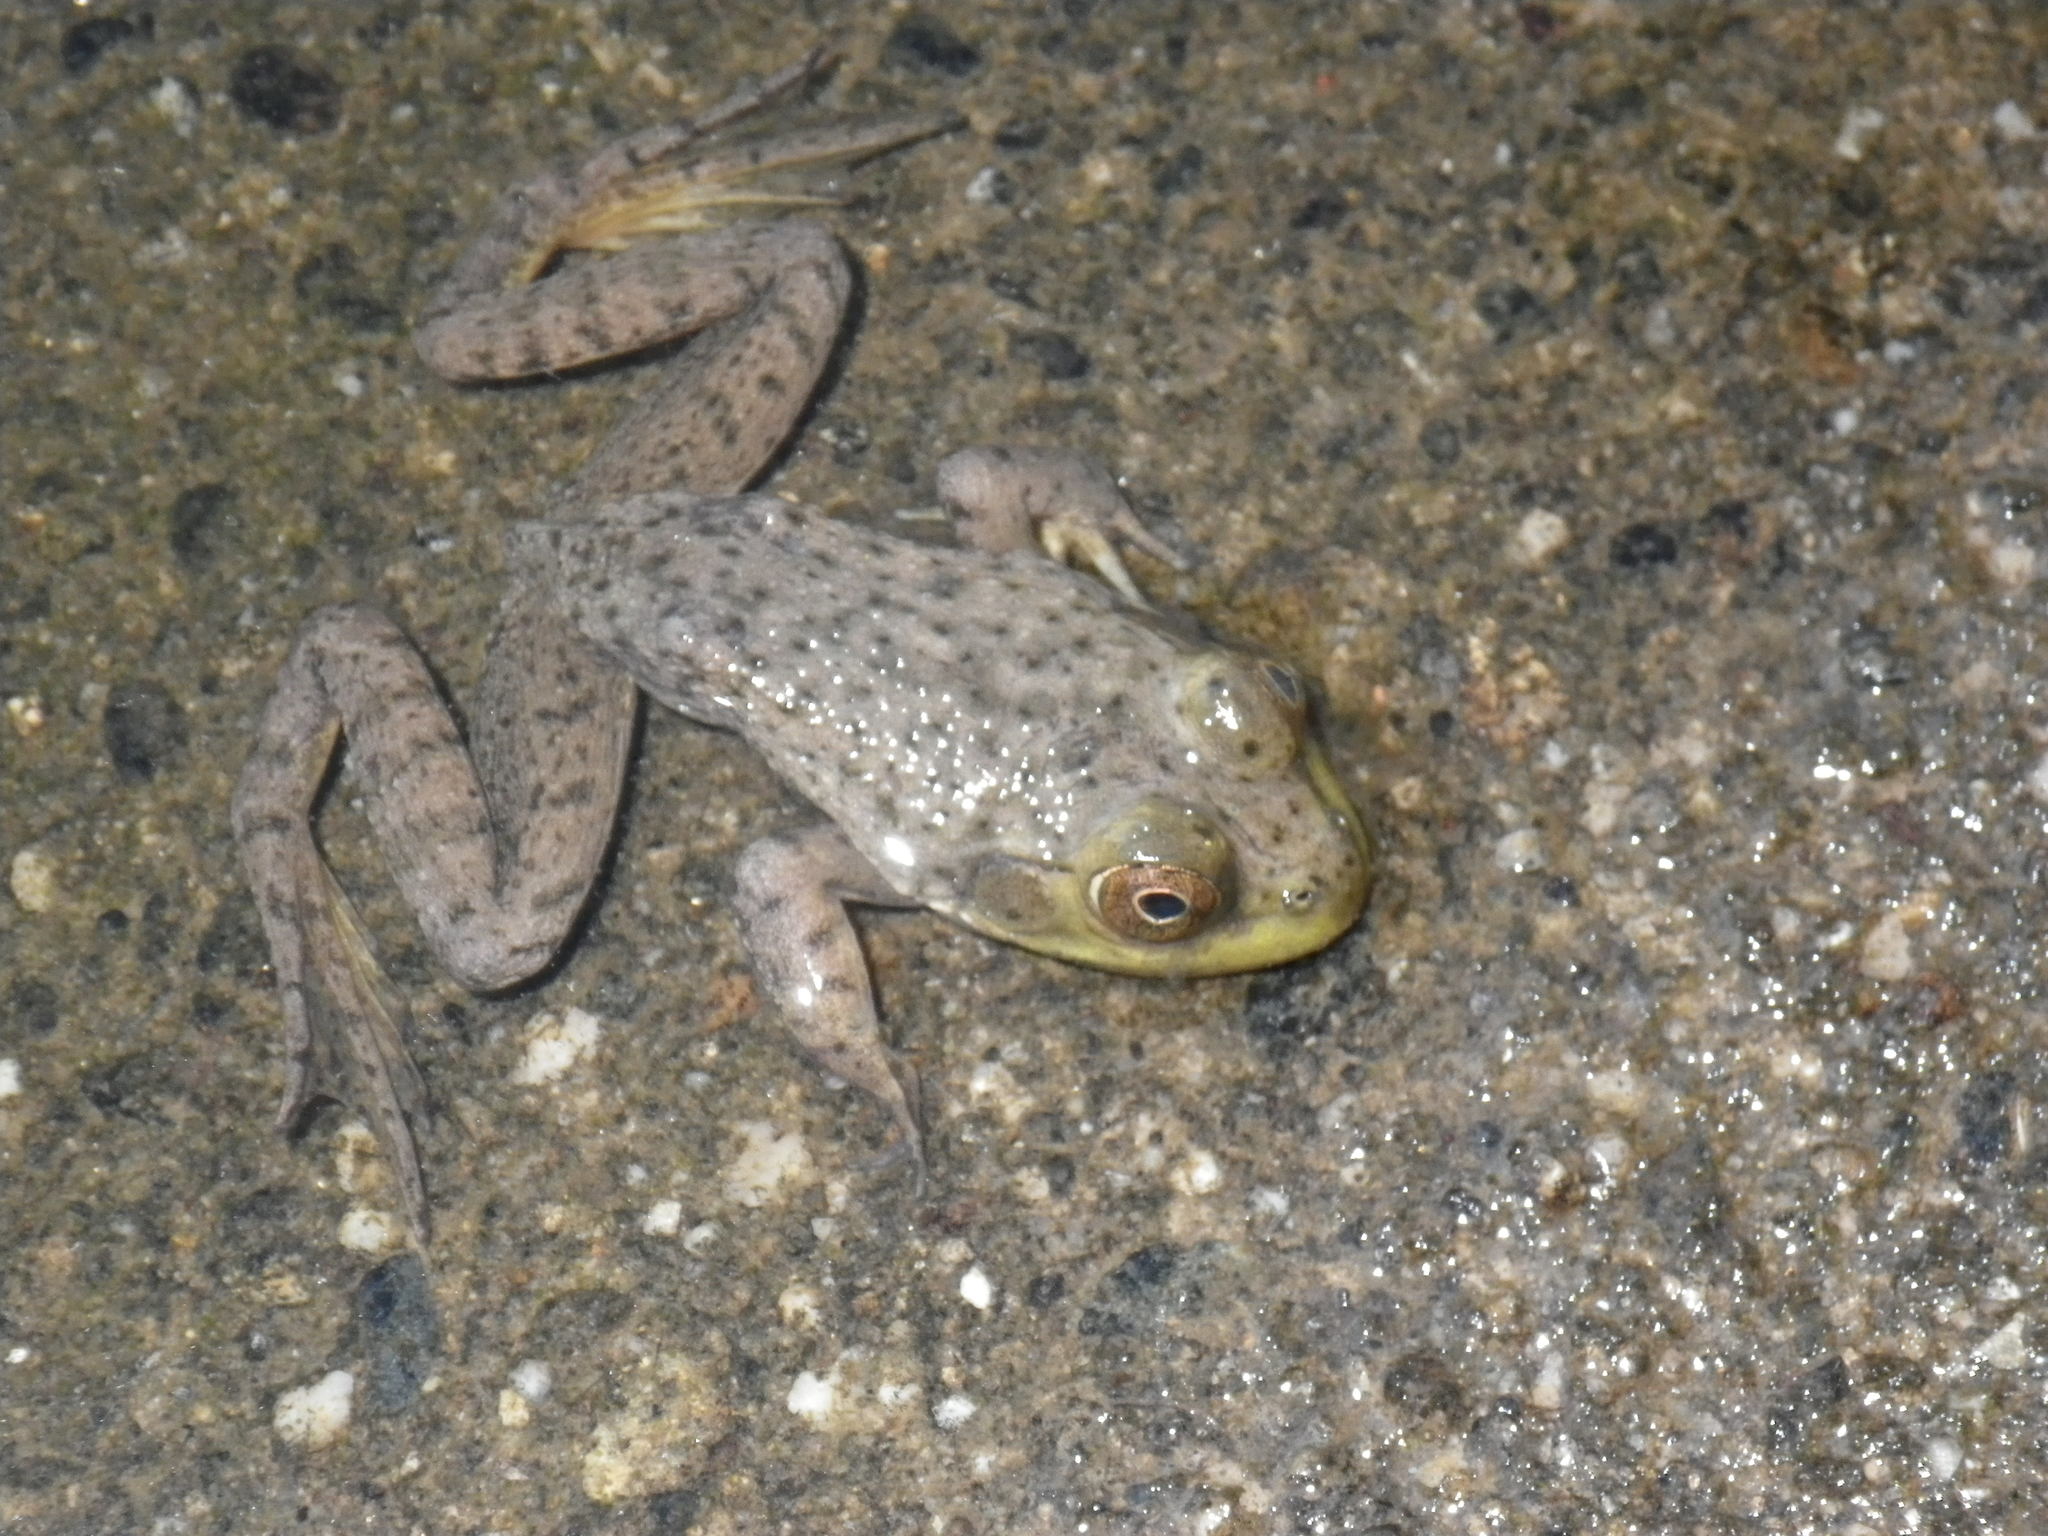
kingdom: Animalia
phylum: Chordata
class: Amphibia
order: Anura
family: Ranidae
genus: Lithobates
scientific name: Lithobates catesbeianus
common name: American bullfrog
